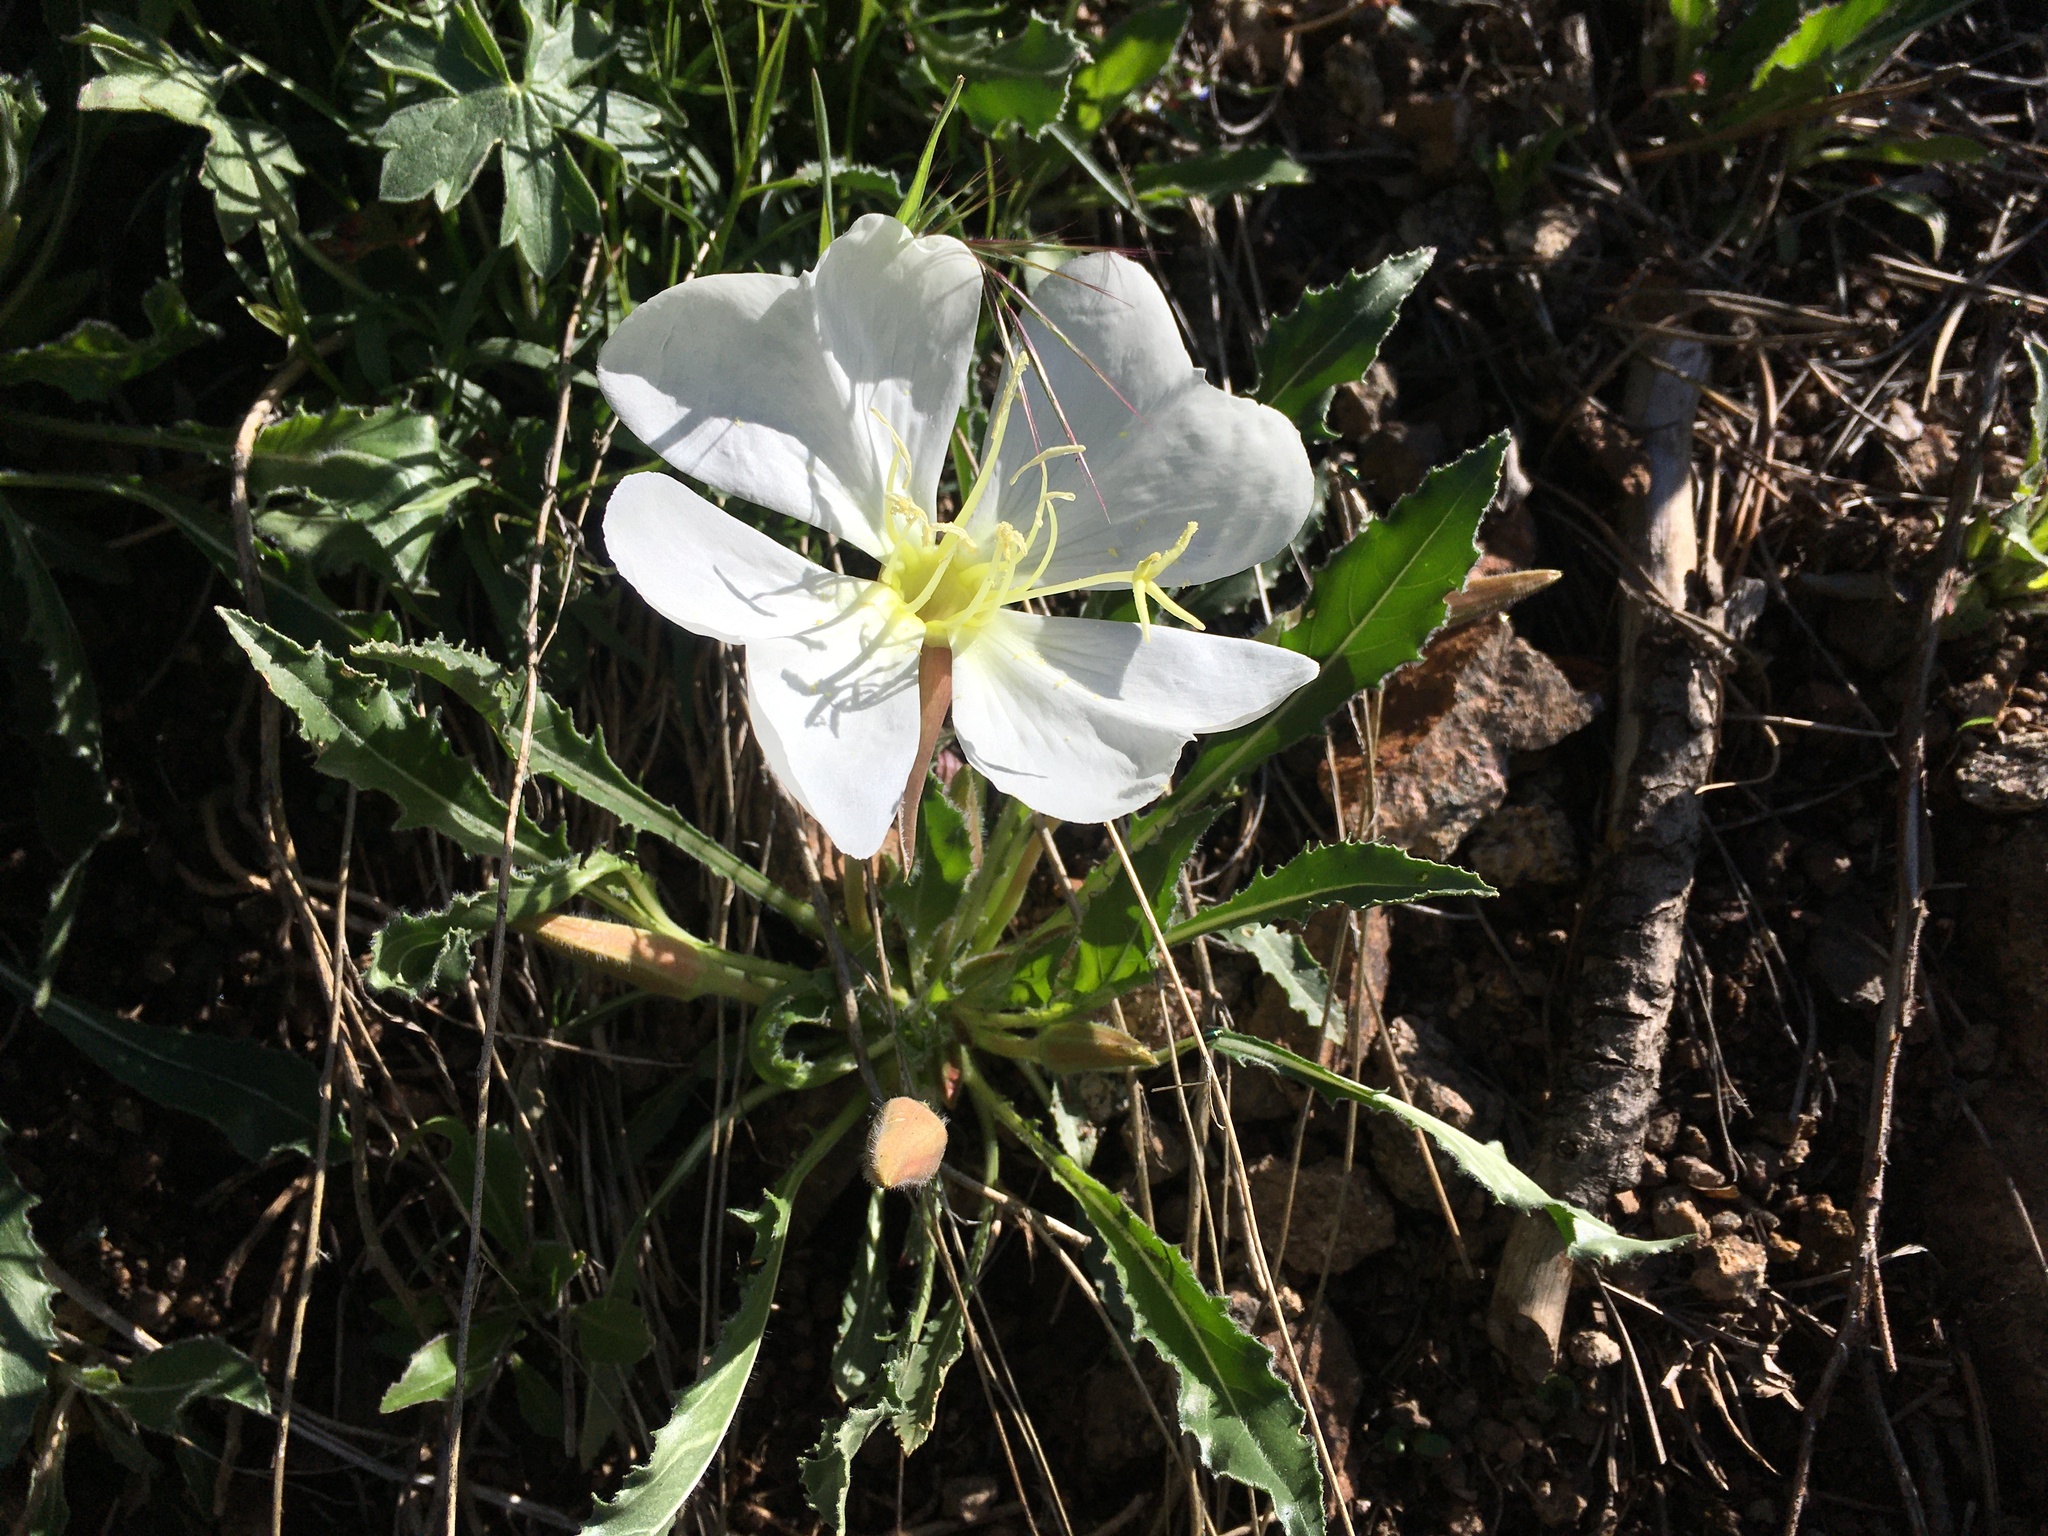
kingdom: Plantae
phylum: Tracheophyta
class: Magnoliopsida
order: Myrtales
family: Onagraceae
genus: Oenothera
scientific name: Oenothera cespitosa
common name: Tufted evening-primrose
